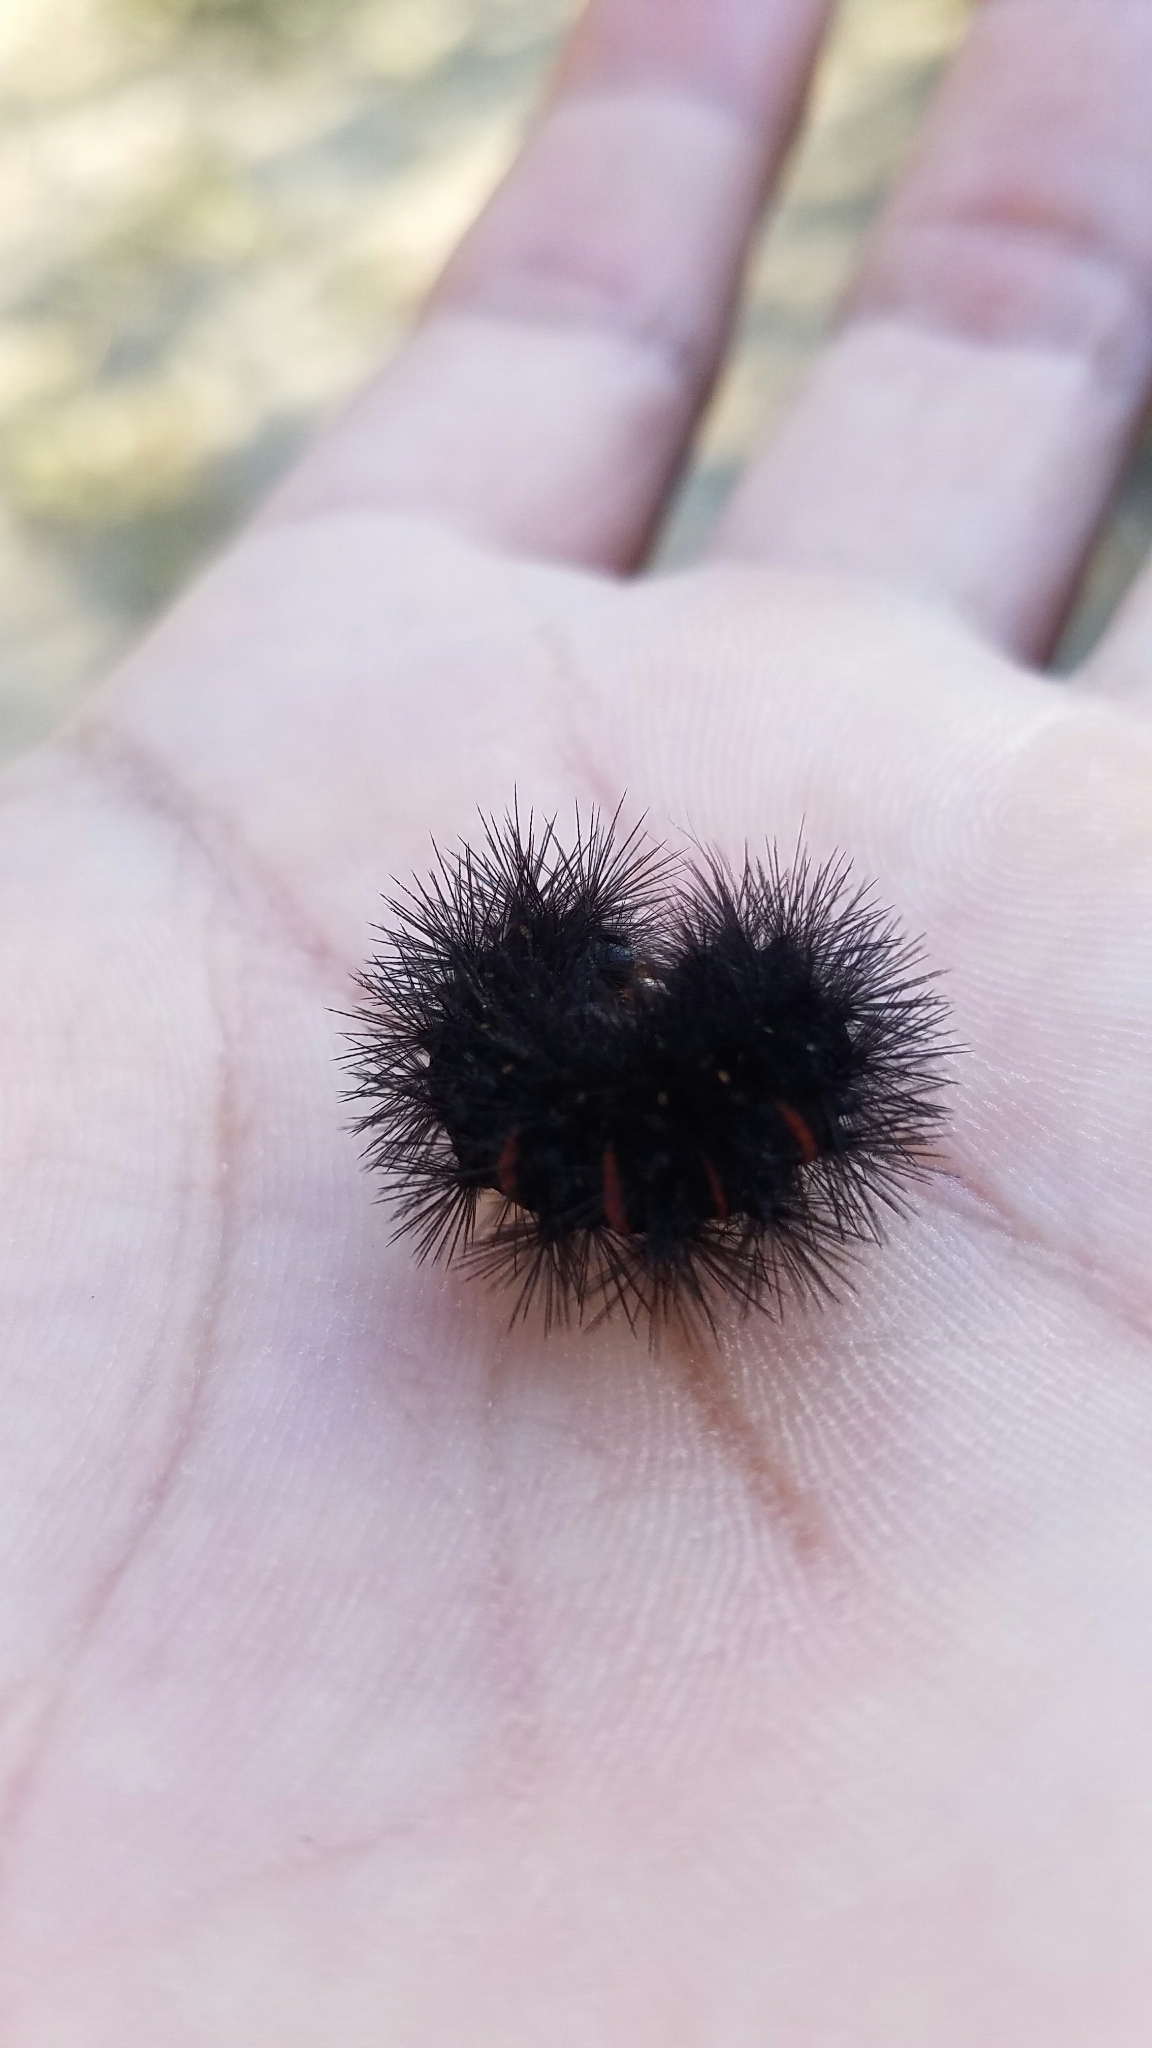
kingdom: Animalia
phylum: Arthropoda
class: Insecta
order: Lepidoptera
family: Erebidae
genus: Hypercompe
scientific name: Hypercompe scribonia
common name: Giant leopard moth
